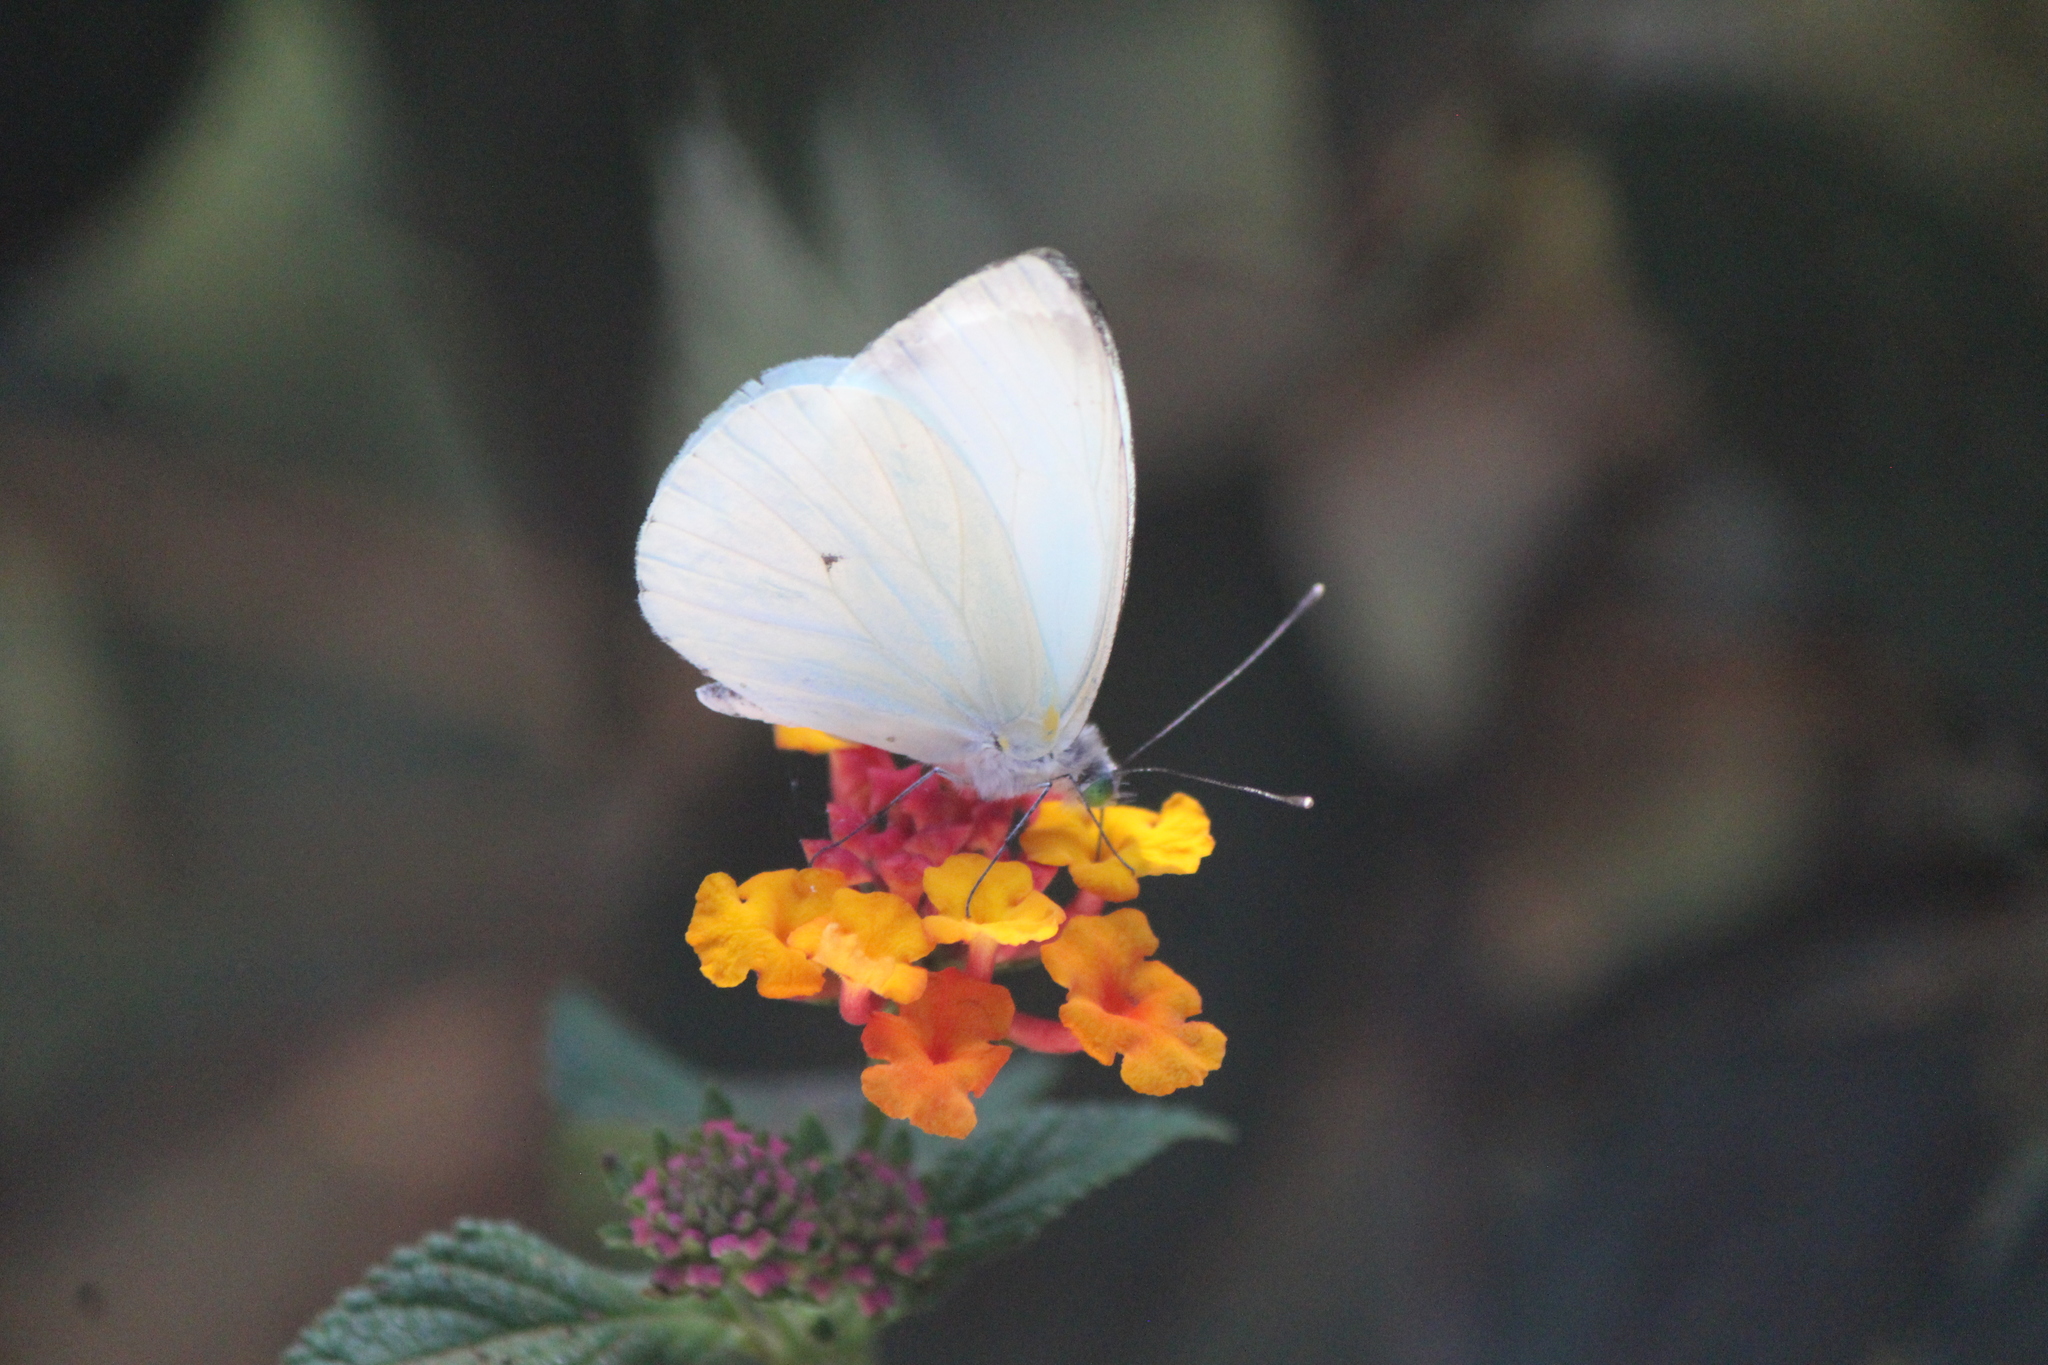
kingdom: Animalia
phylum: Arthropoda
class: Insecta
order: Lepidoptera
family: Pieridae
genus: Leptophobia
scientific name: Leptophobia aripa
